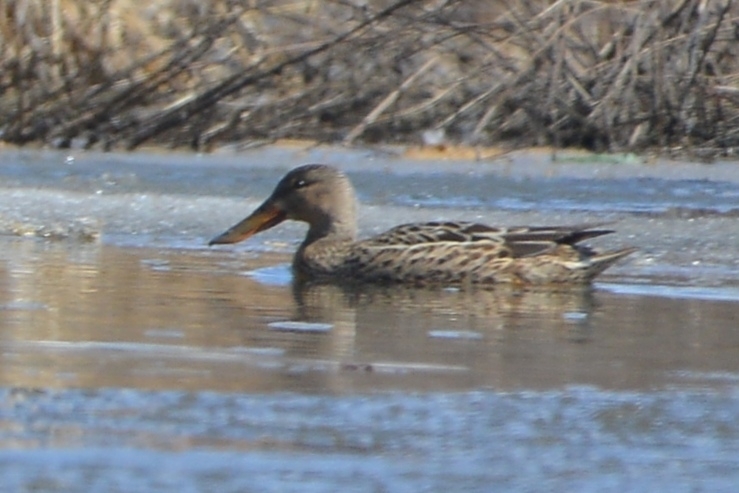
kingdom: Animalia
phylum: Chordata
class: Aves
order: Anseriformes
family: Anatidae
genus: Spatula
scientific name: Spatula clypeata
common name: Northern shoveler
